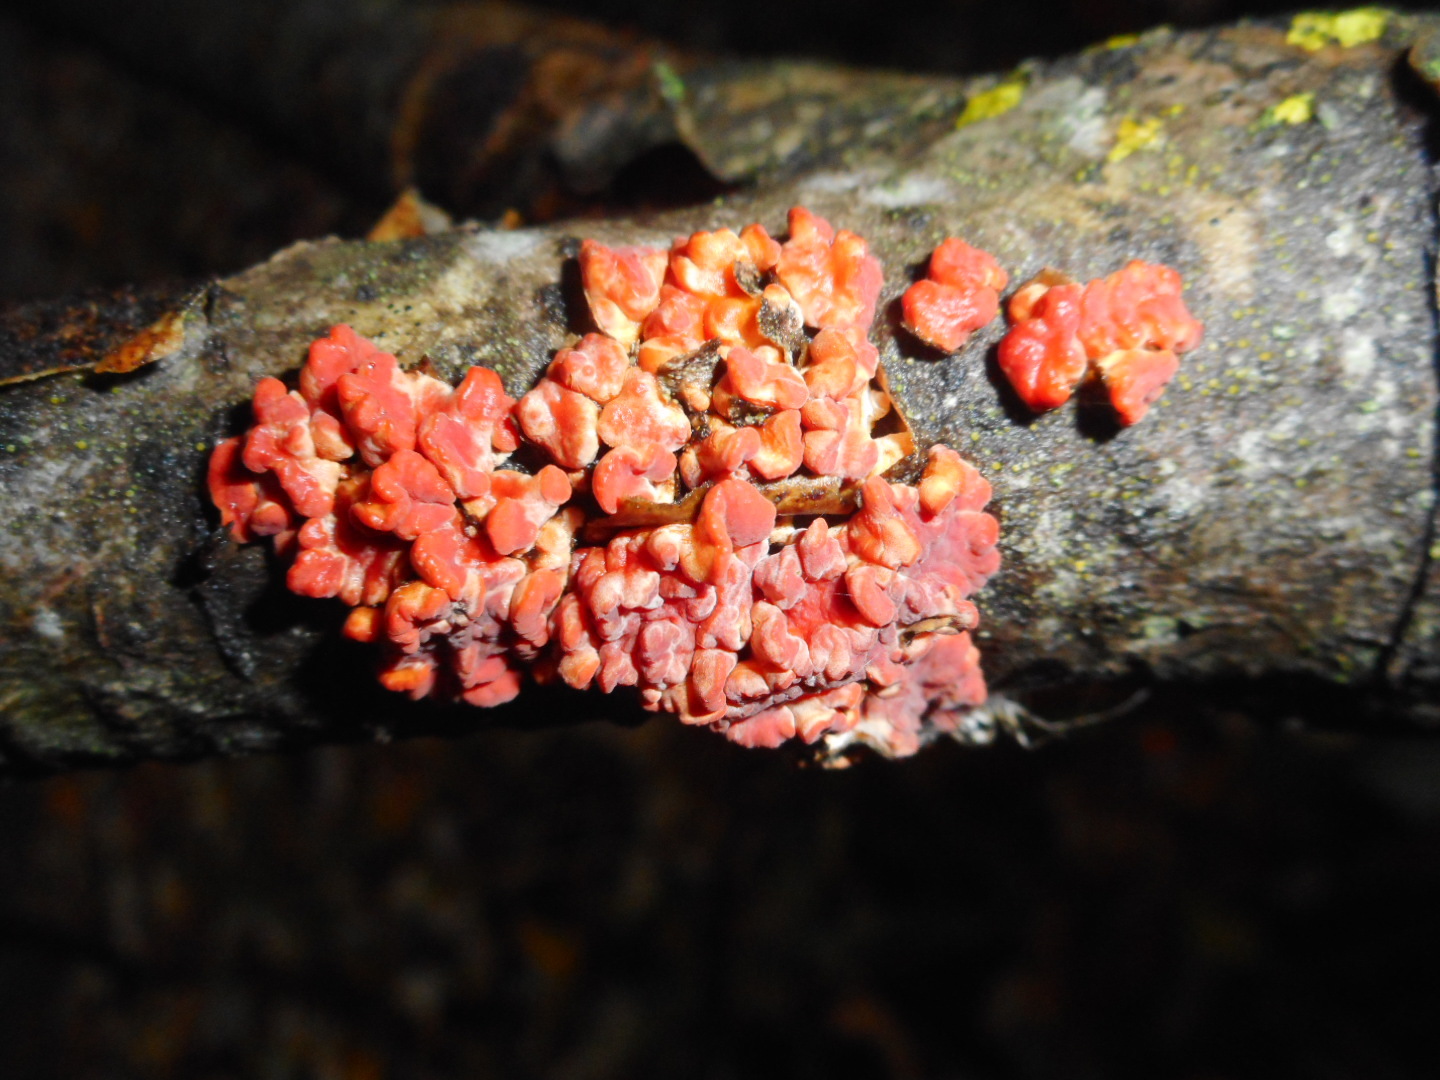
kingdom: Fungi
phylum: Basidiomycota
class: Agaricomycetes
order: Russulales
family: Peniophoraceae
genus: Peniophora
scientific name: Peniophora rufa
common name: Red tree brain fungus
